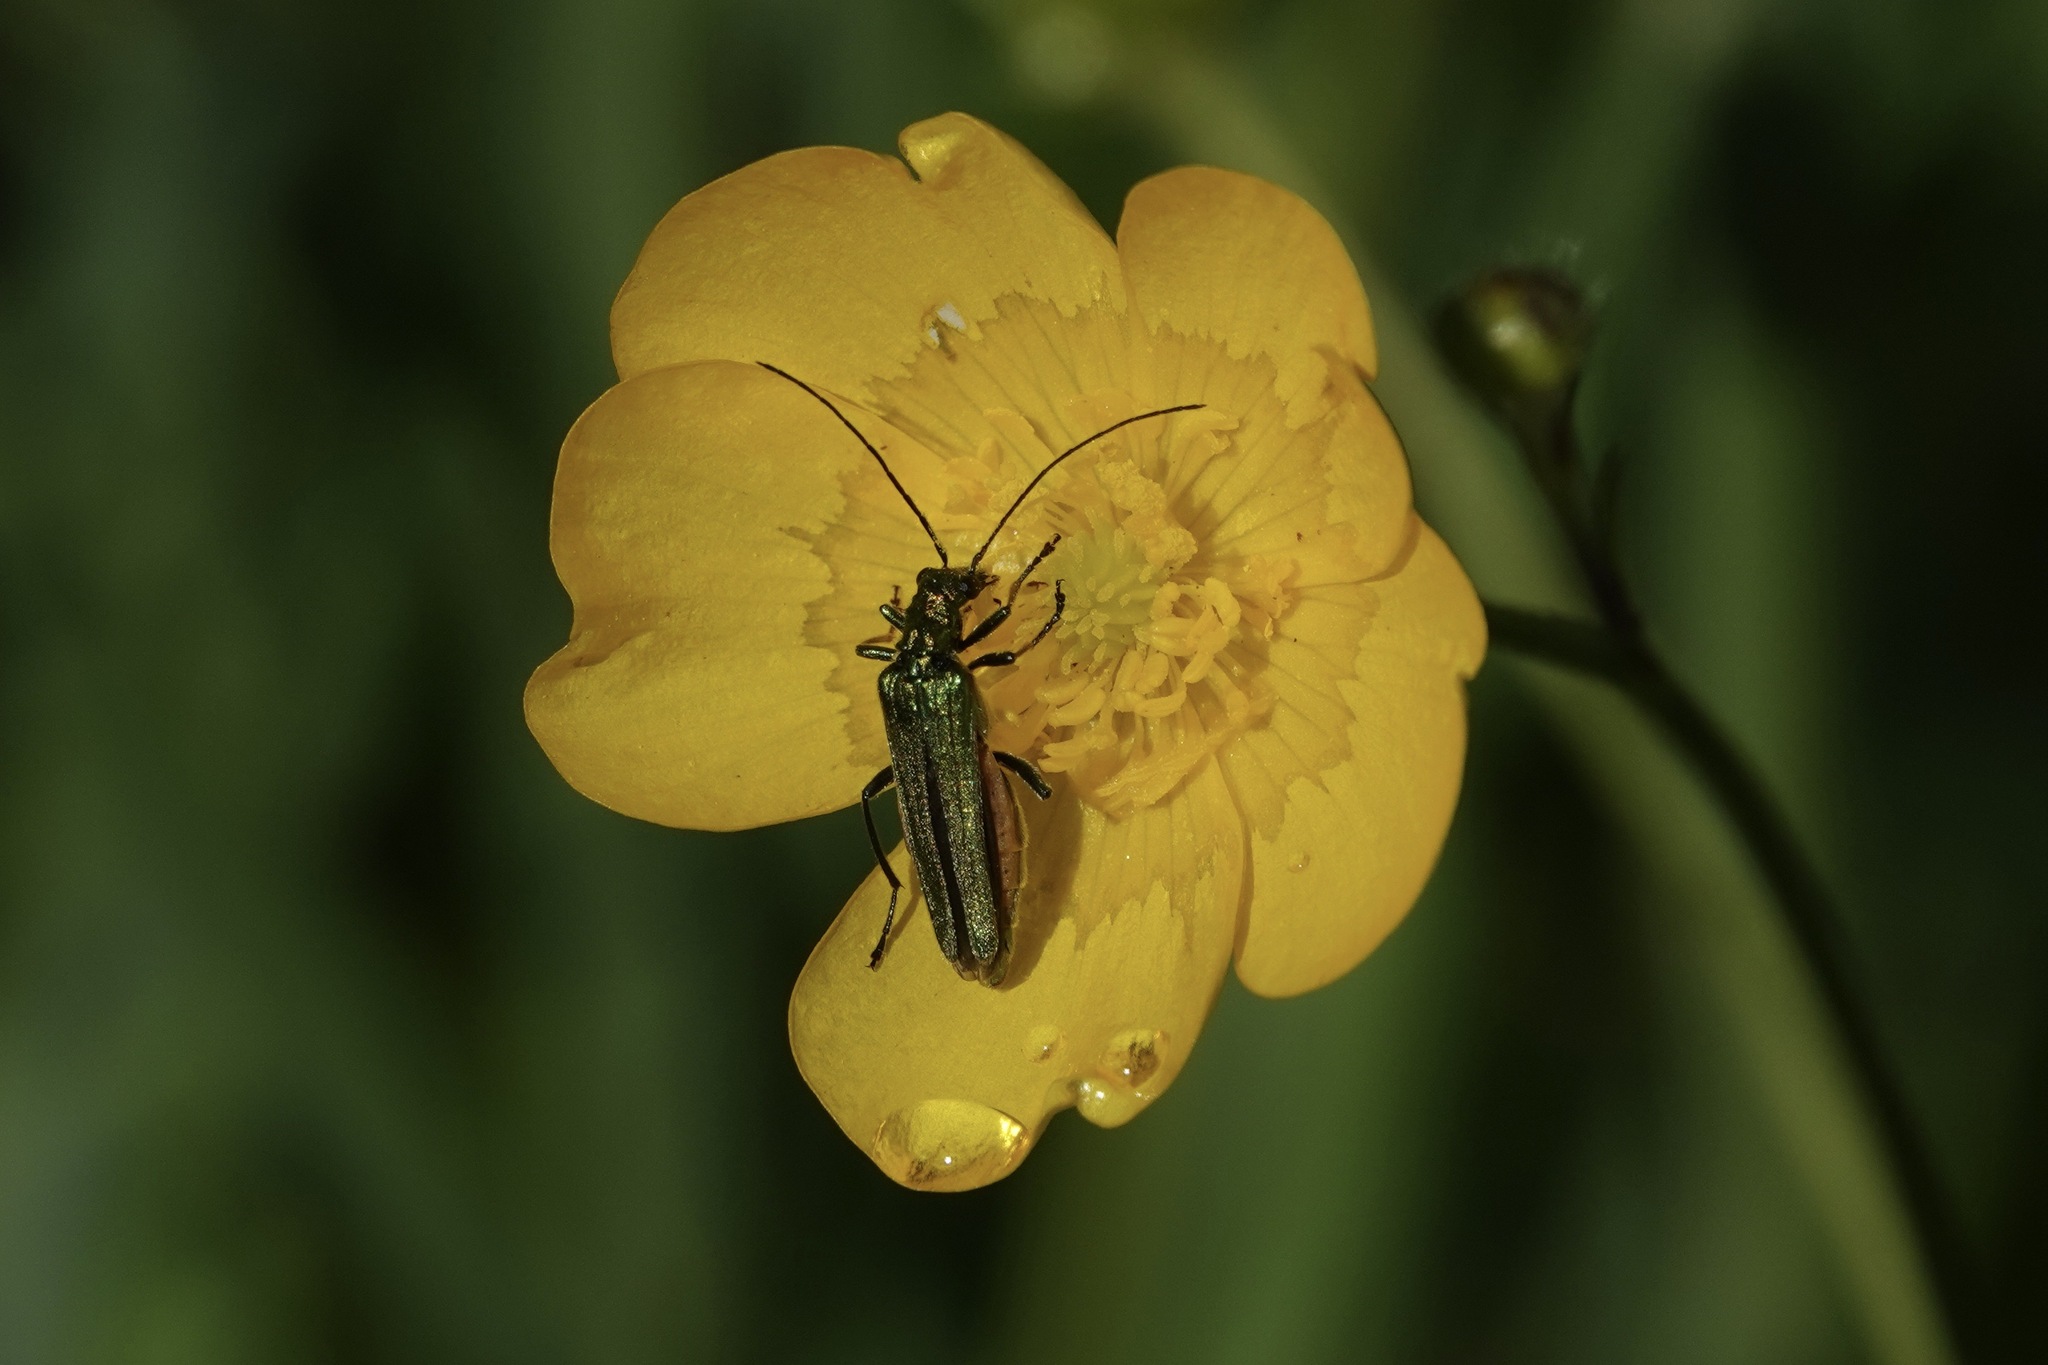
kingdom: Animalia
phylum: Arthropoda
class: Insecta
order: Coleoptera
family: Oedemeridae
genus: Oedemera
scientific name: Oedemera nobilis
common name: Swollen-thighed beetle
